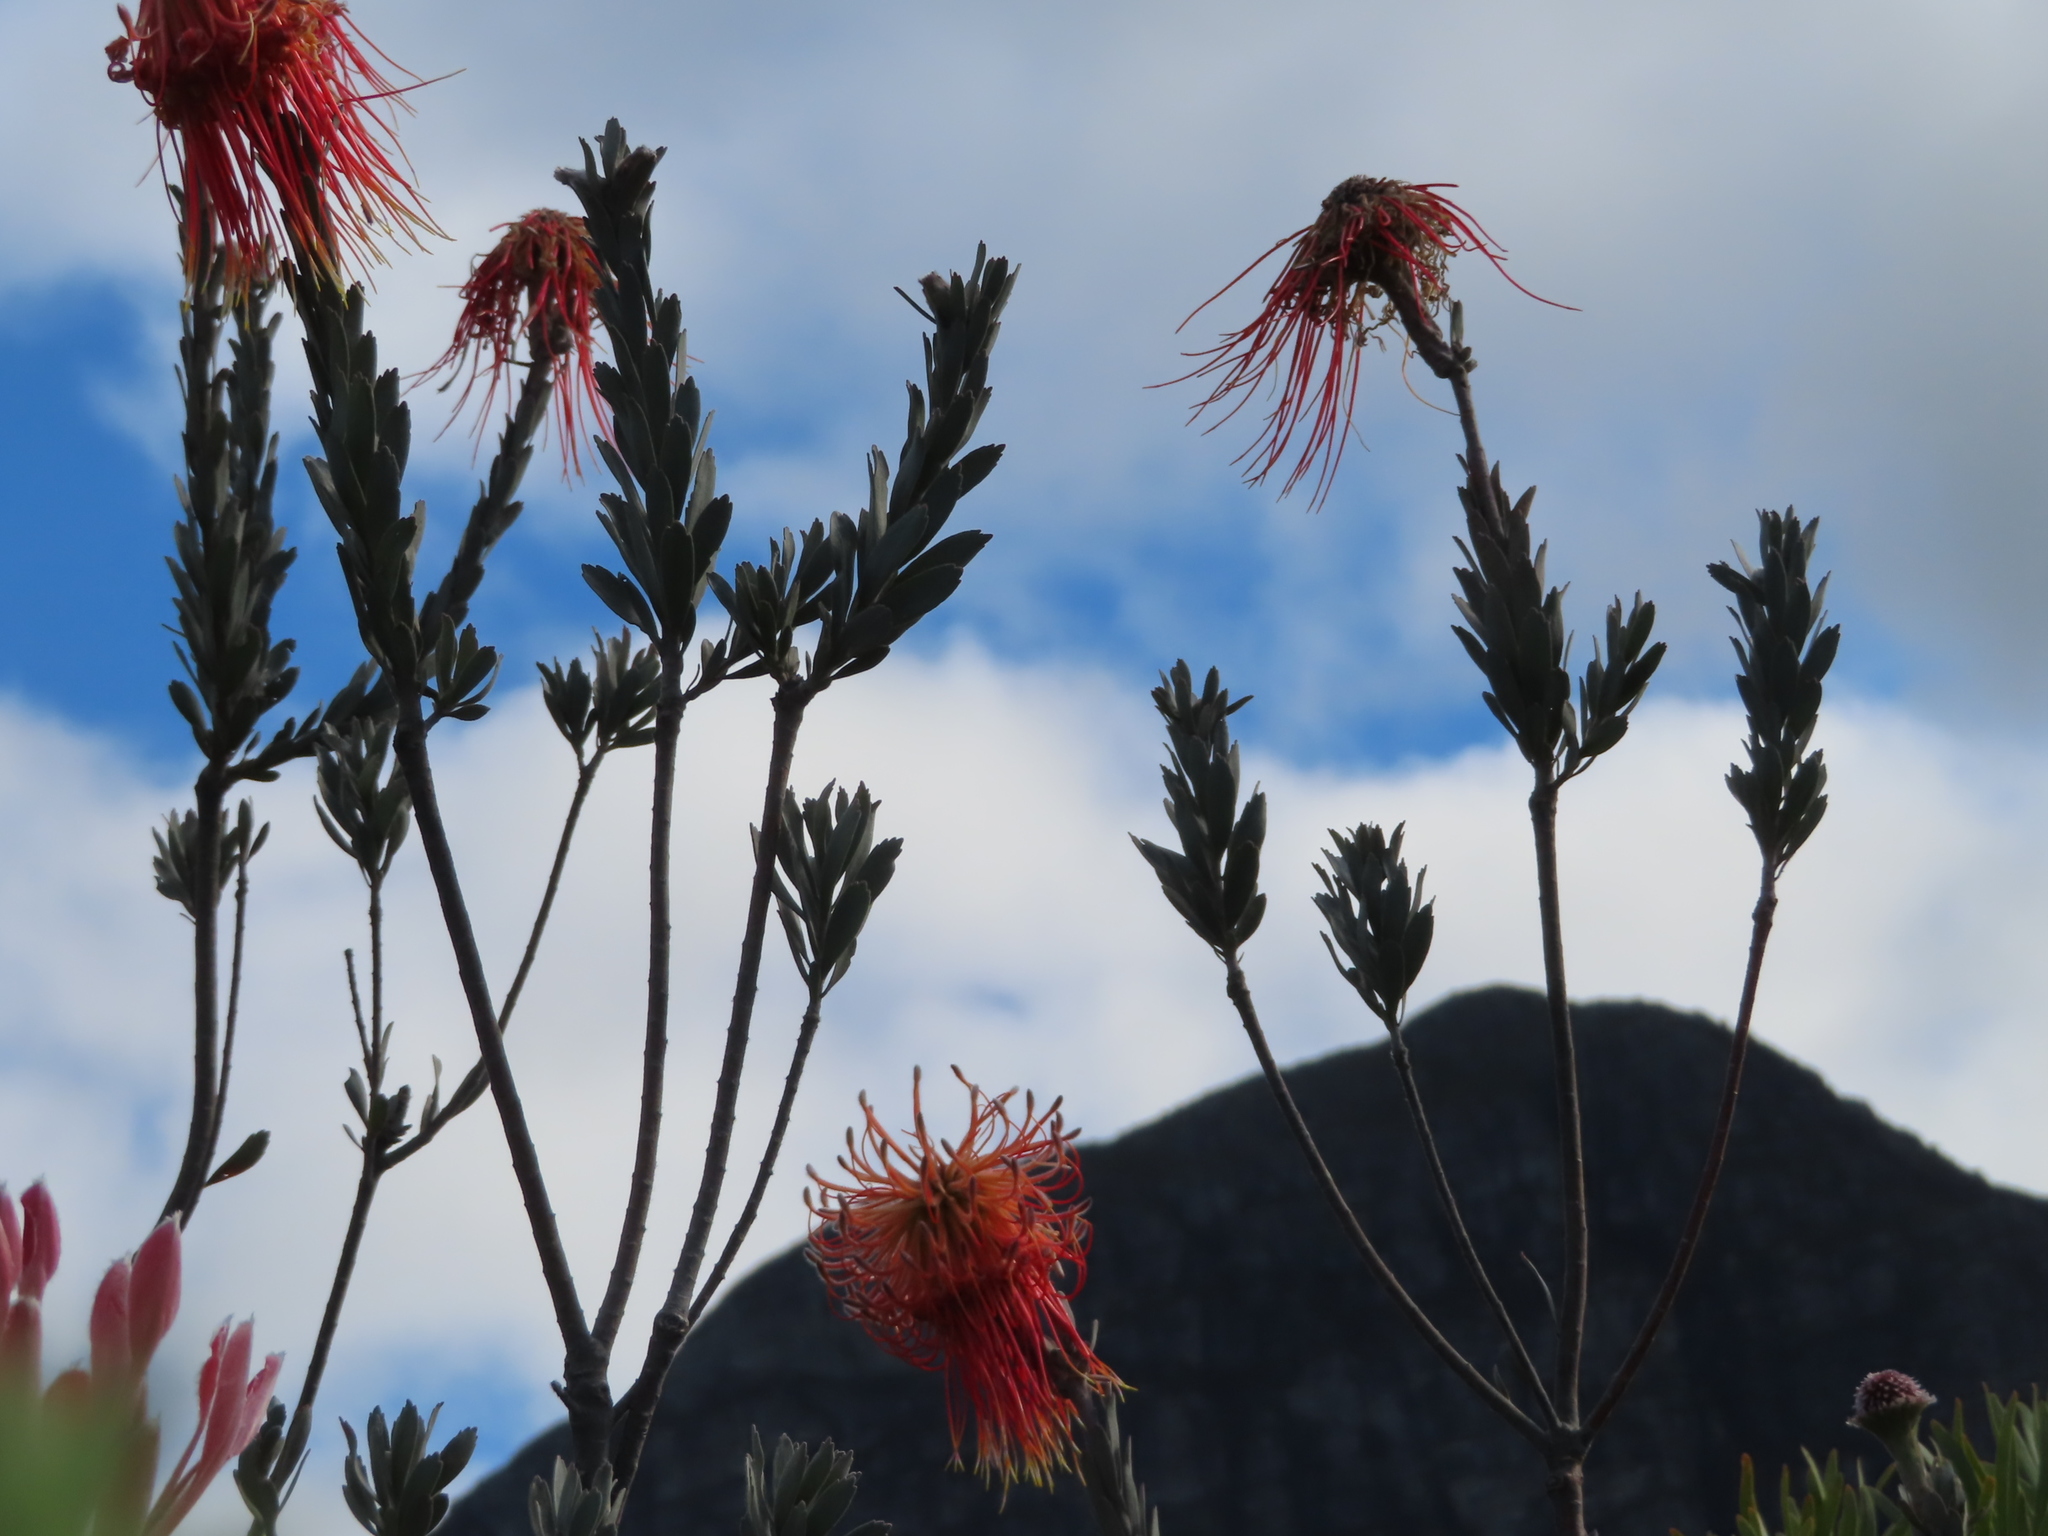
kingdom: Plantae
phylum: Tracheophyta
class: Magnoliopsida
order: Proteales
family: Proteaceae
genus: Leucospermum
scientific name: Leucospermum reflexum
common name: Rocket pincushion
